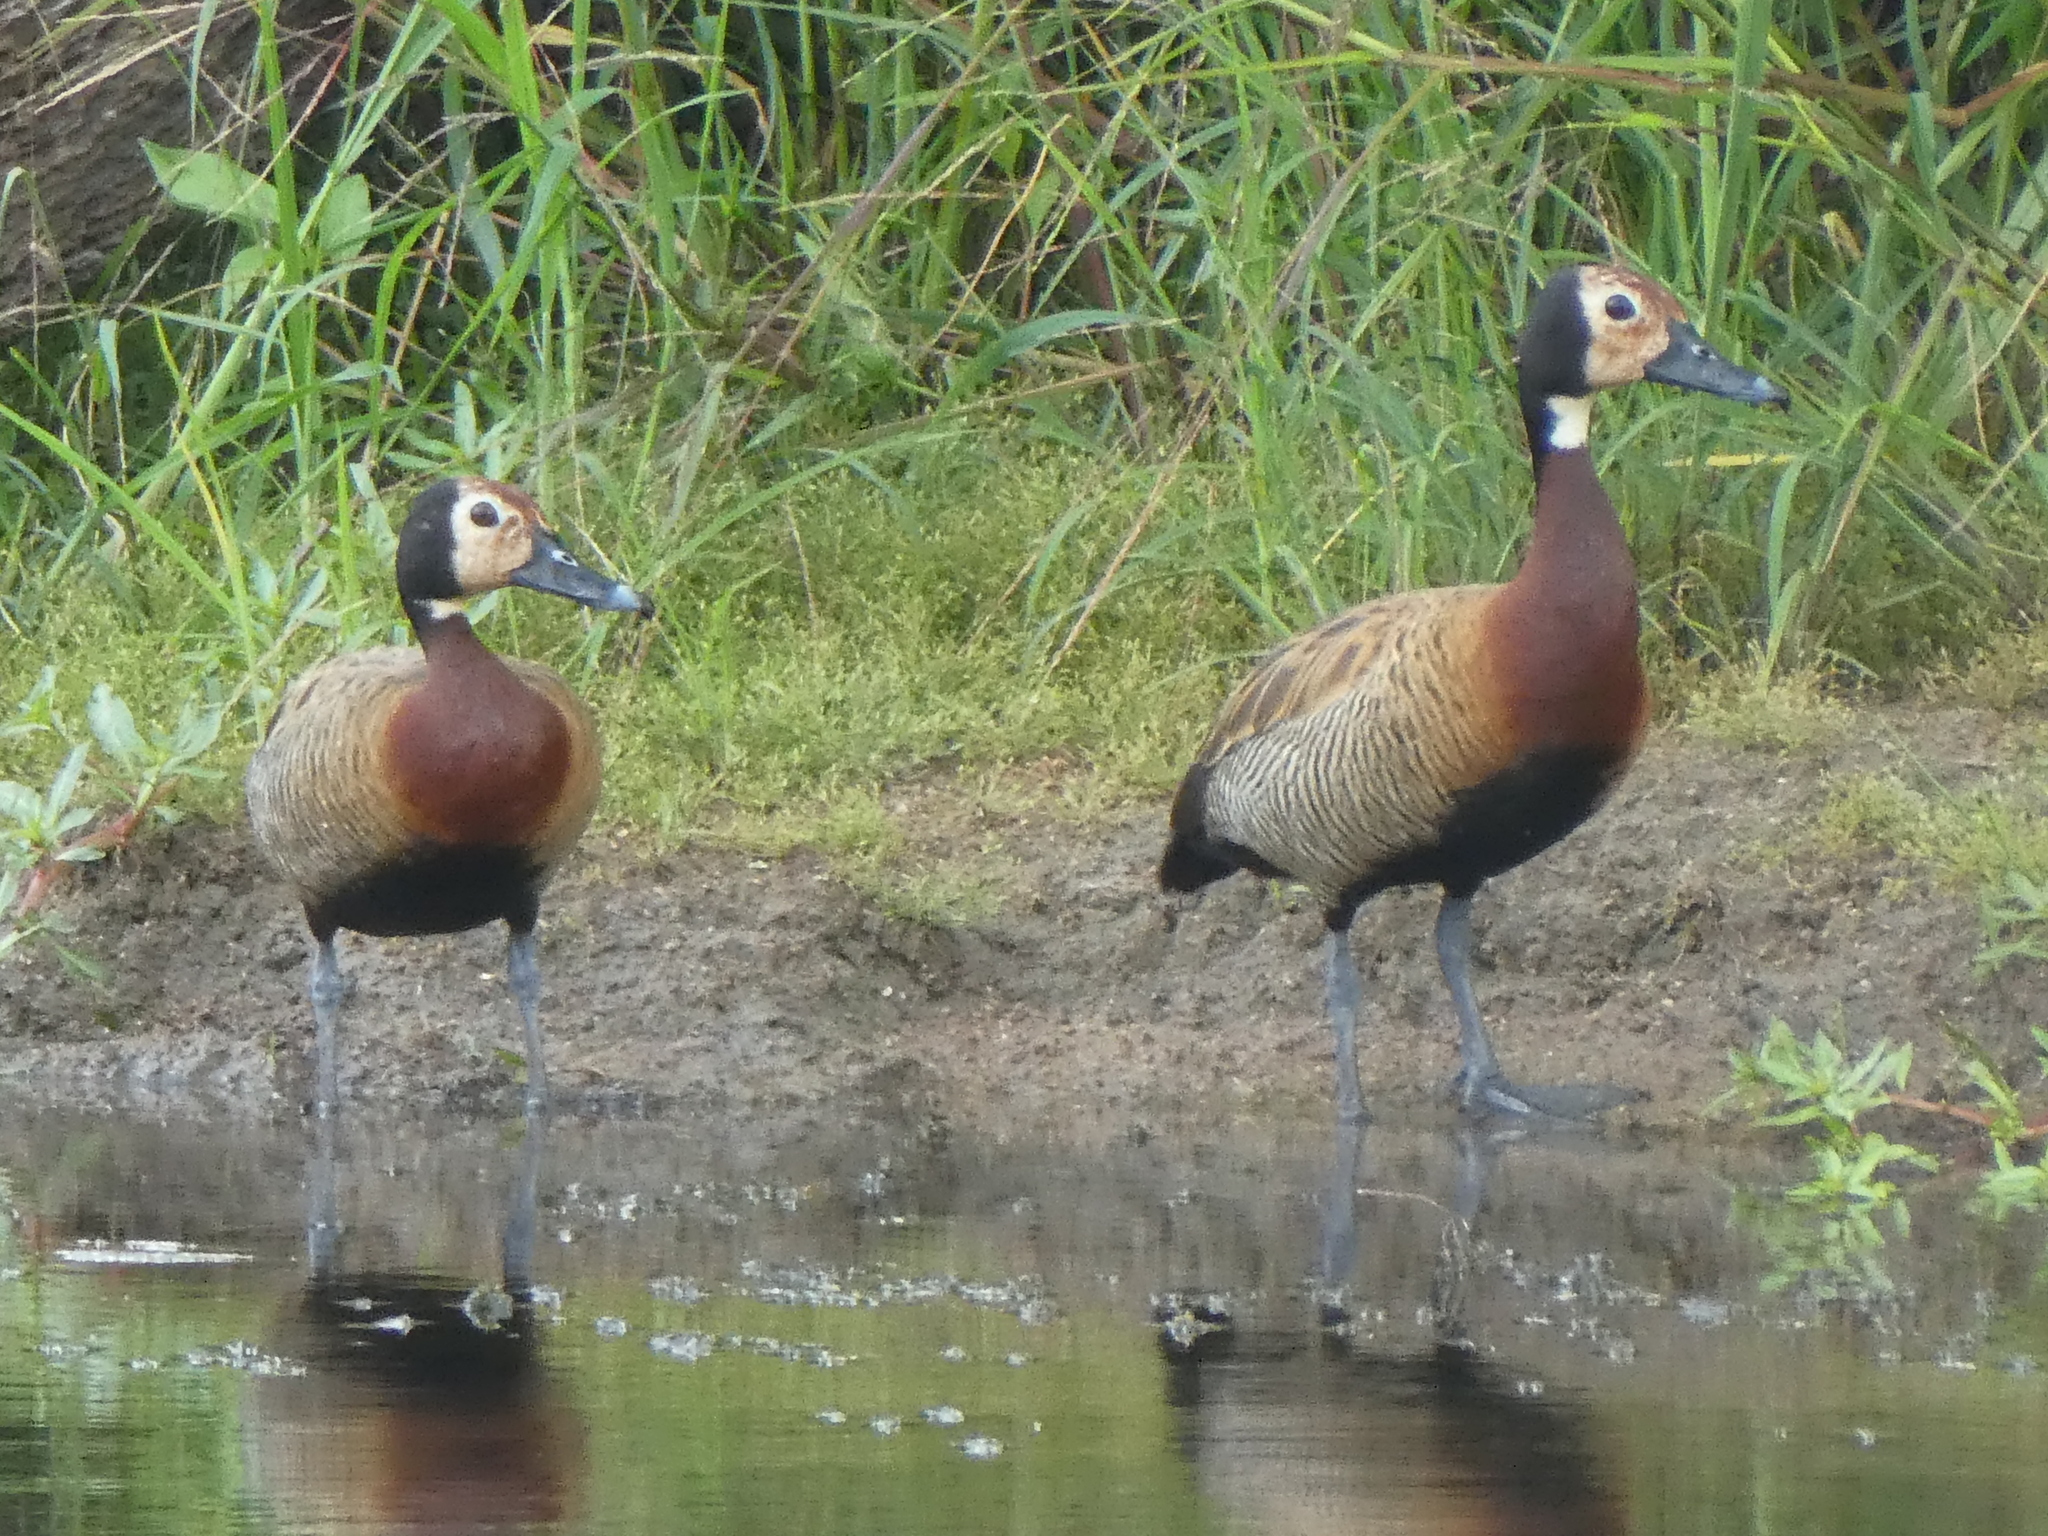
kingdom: Animalia
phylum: Chordata
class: Aves
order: Anseriformes
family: Anatidae
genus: Dendrocygna
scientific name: Dendrocygna viduata
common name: White-faced whistling duck
